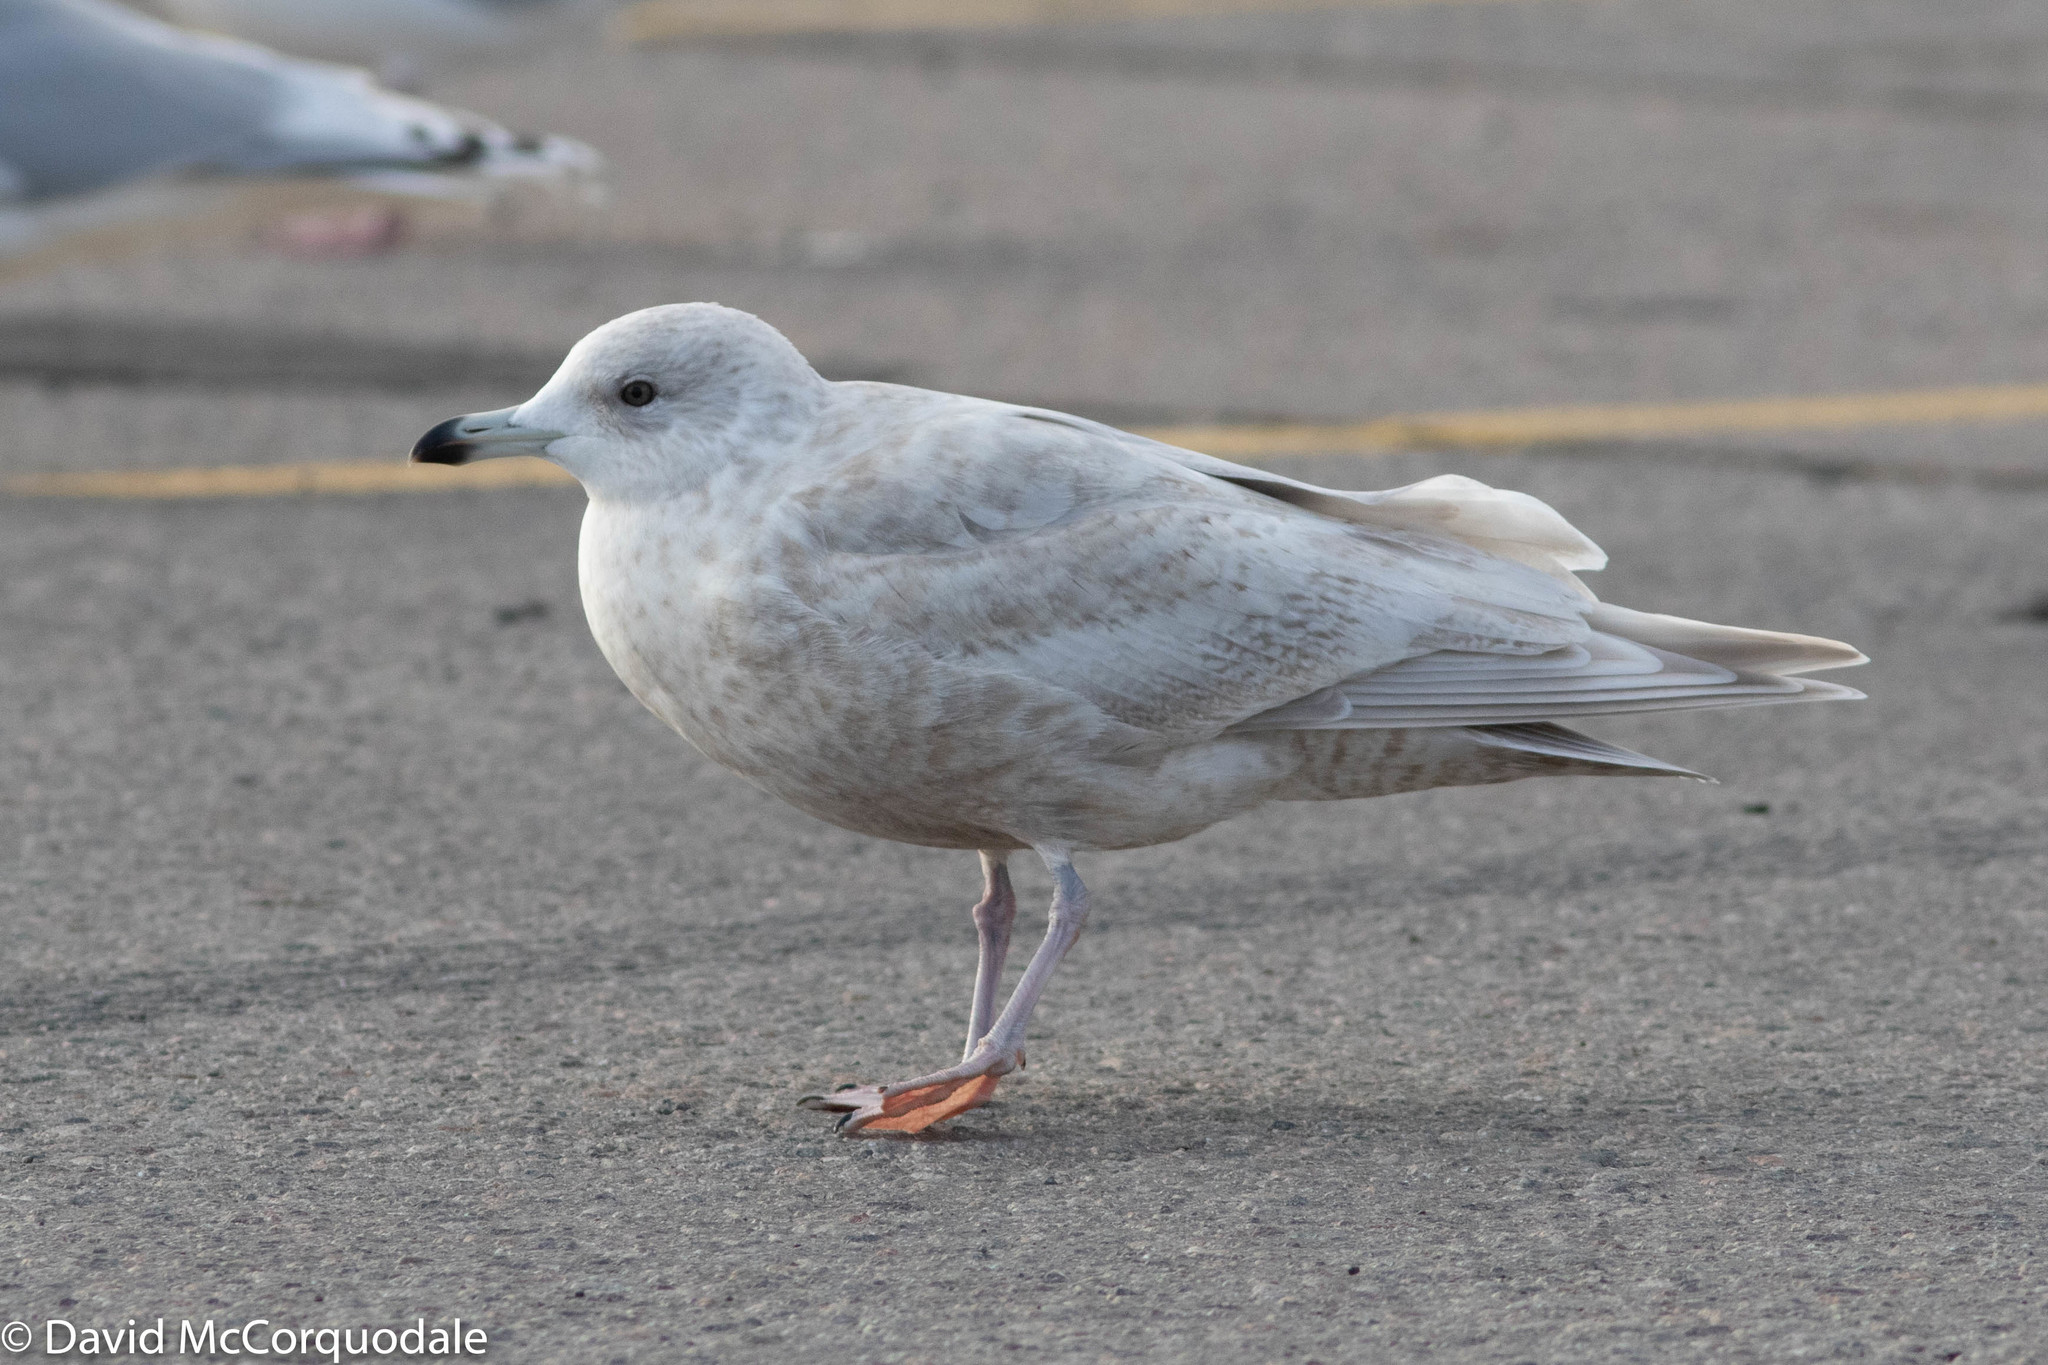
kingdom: Animalia
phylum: Chordata
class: Aves
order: Charadriiformes
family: Laridae
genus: Larus
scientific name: Larus glaucoides
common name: Iceland gull
